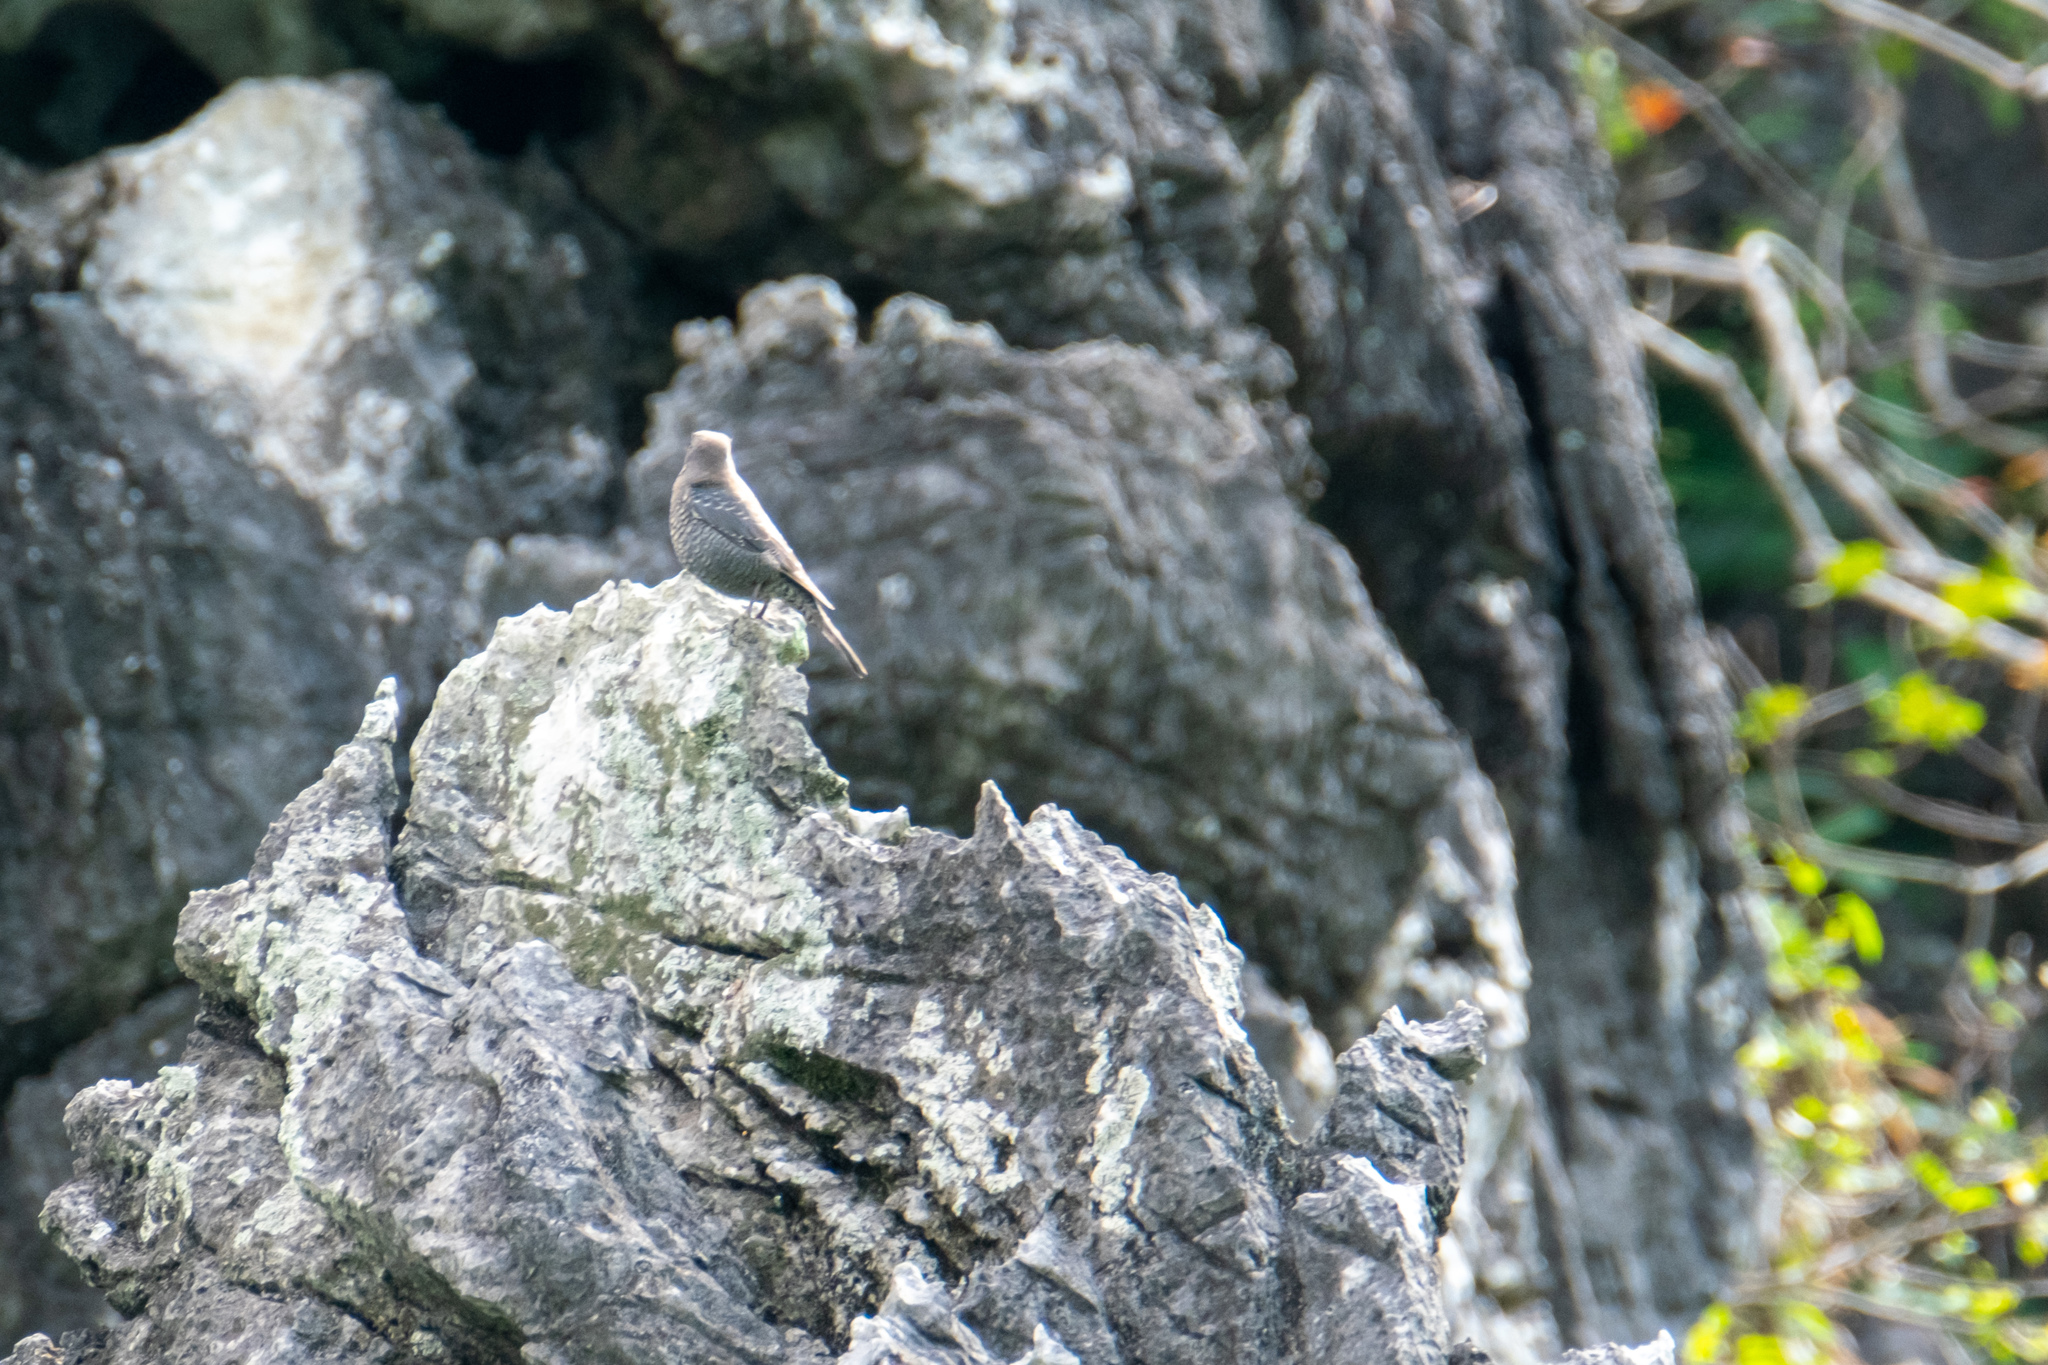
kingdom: Animalia
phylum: Chordata
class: Aves
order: Passeriformes
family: Muscicapidae
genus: Monticola
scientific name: Monticola solitarius
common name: Blue rock thrush
